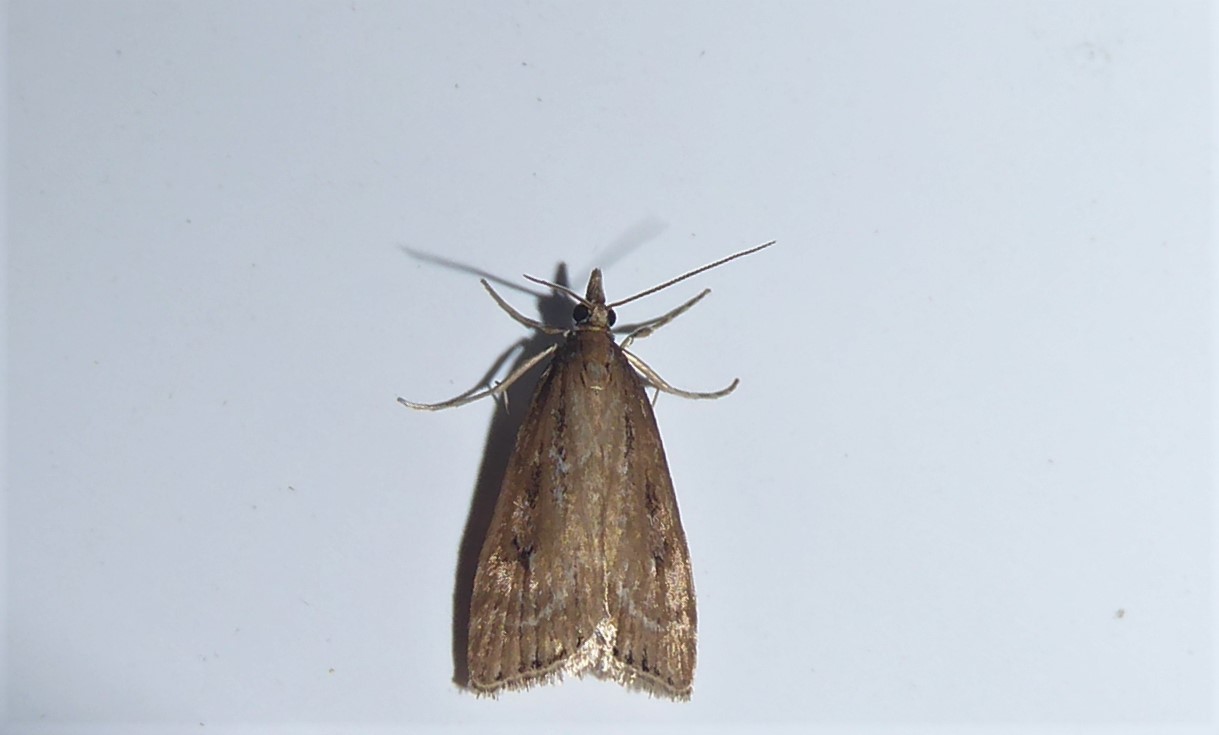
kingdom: Animalia
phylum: Arthropoda
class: Insecta
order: Lepidoptera
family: Crambidae
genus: Eudonia
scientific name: Eudonia octophora
